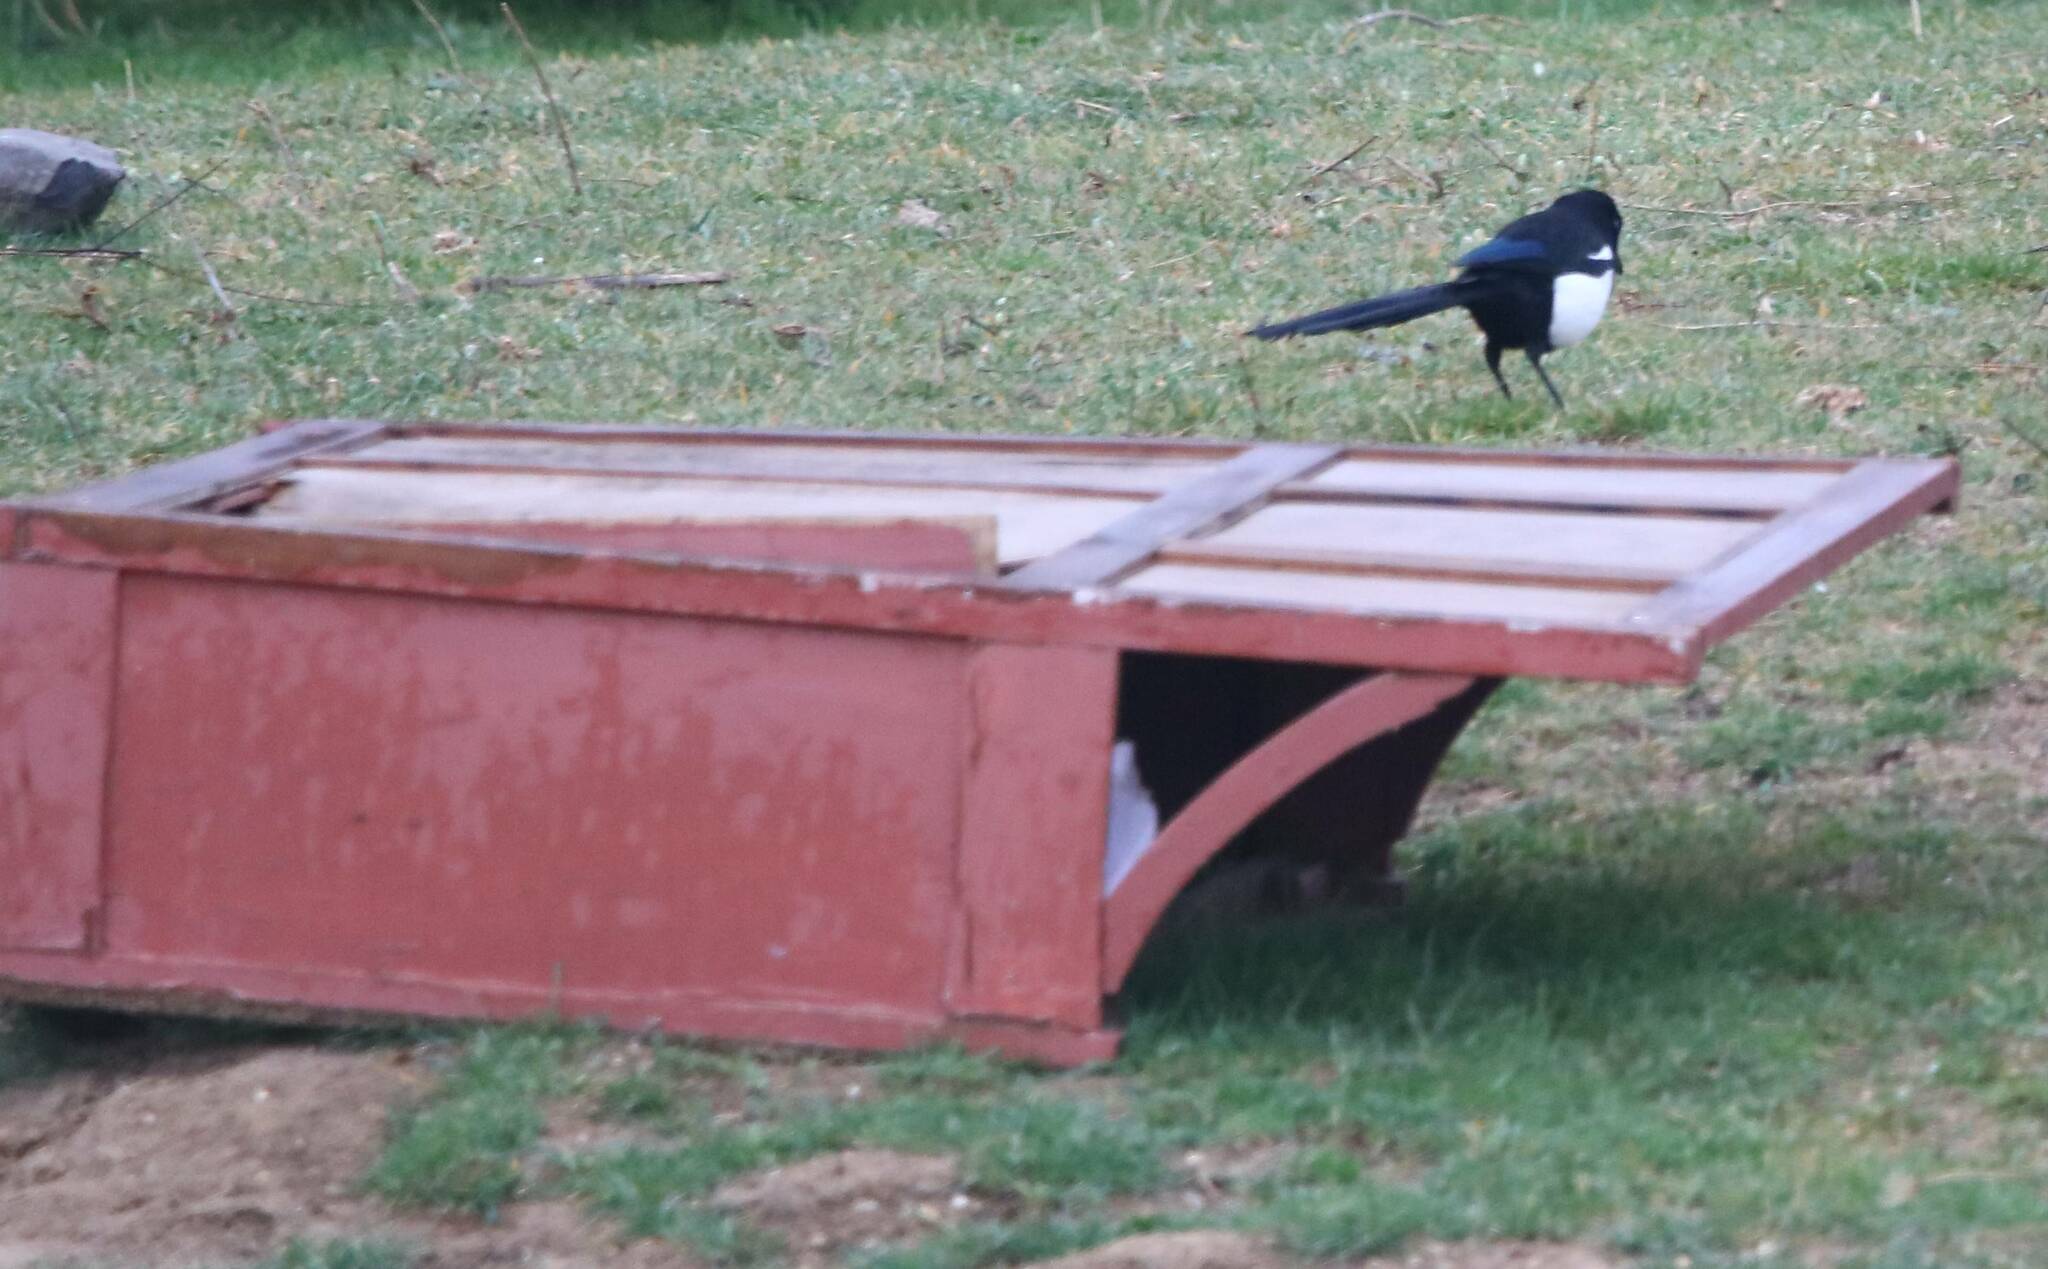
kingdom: Animalia
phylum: Chordata
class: Aves
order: Passeriformes
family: Corvidae
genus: Pica
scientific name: Pica mauritanica
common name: Maghreb magpie
